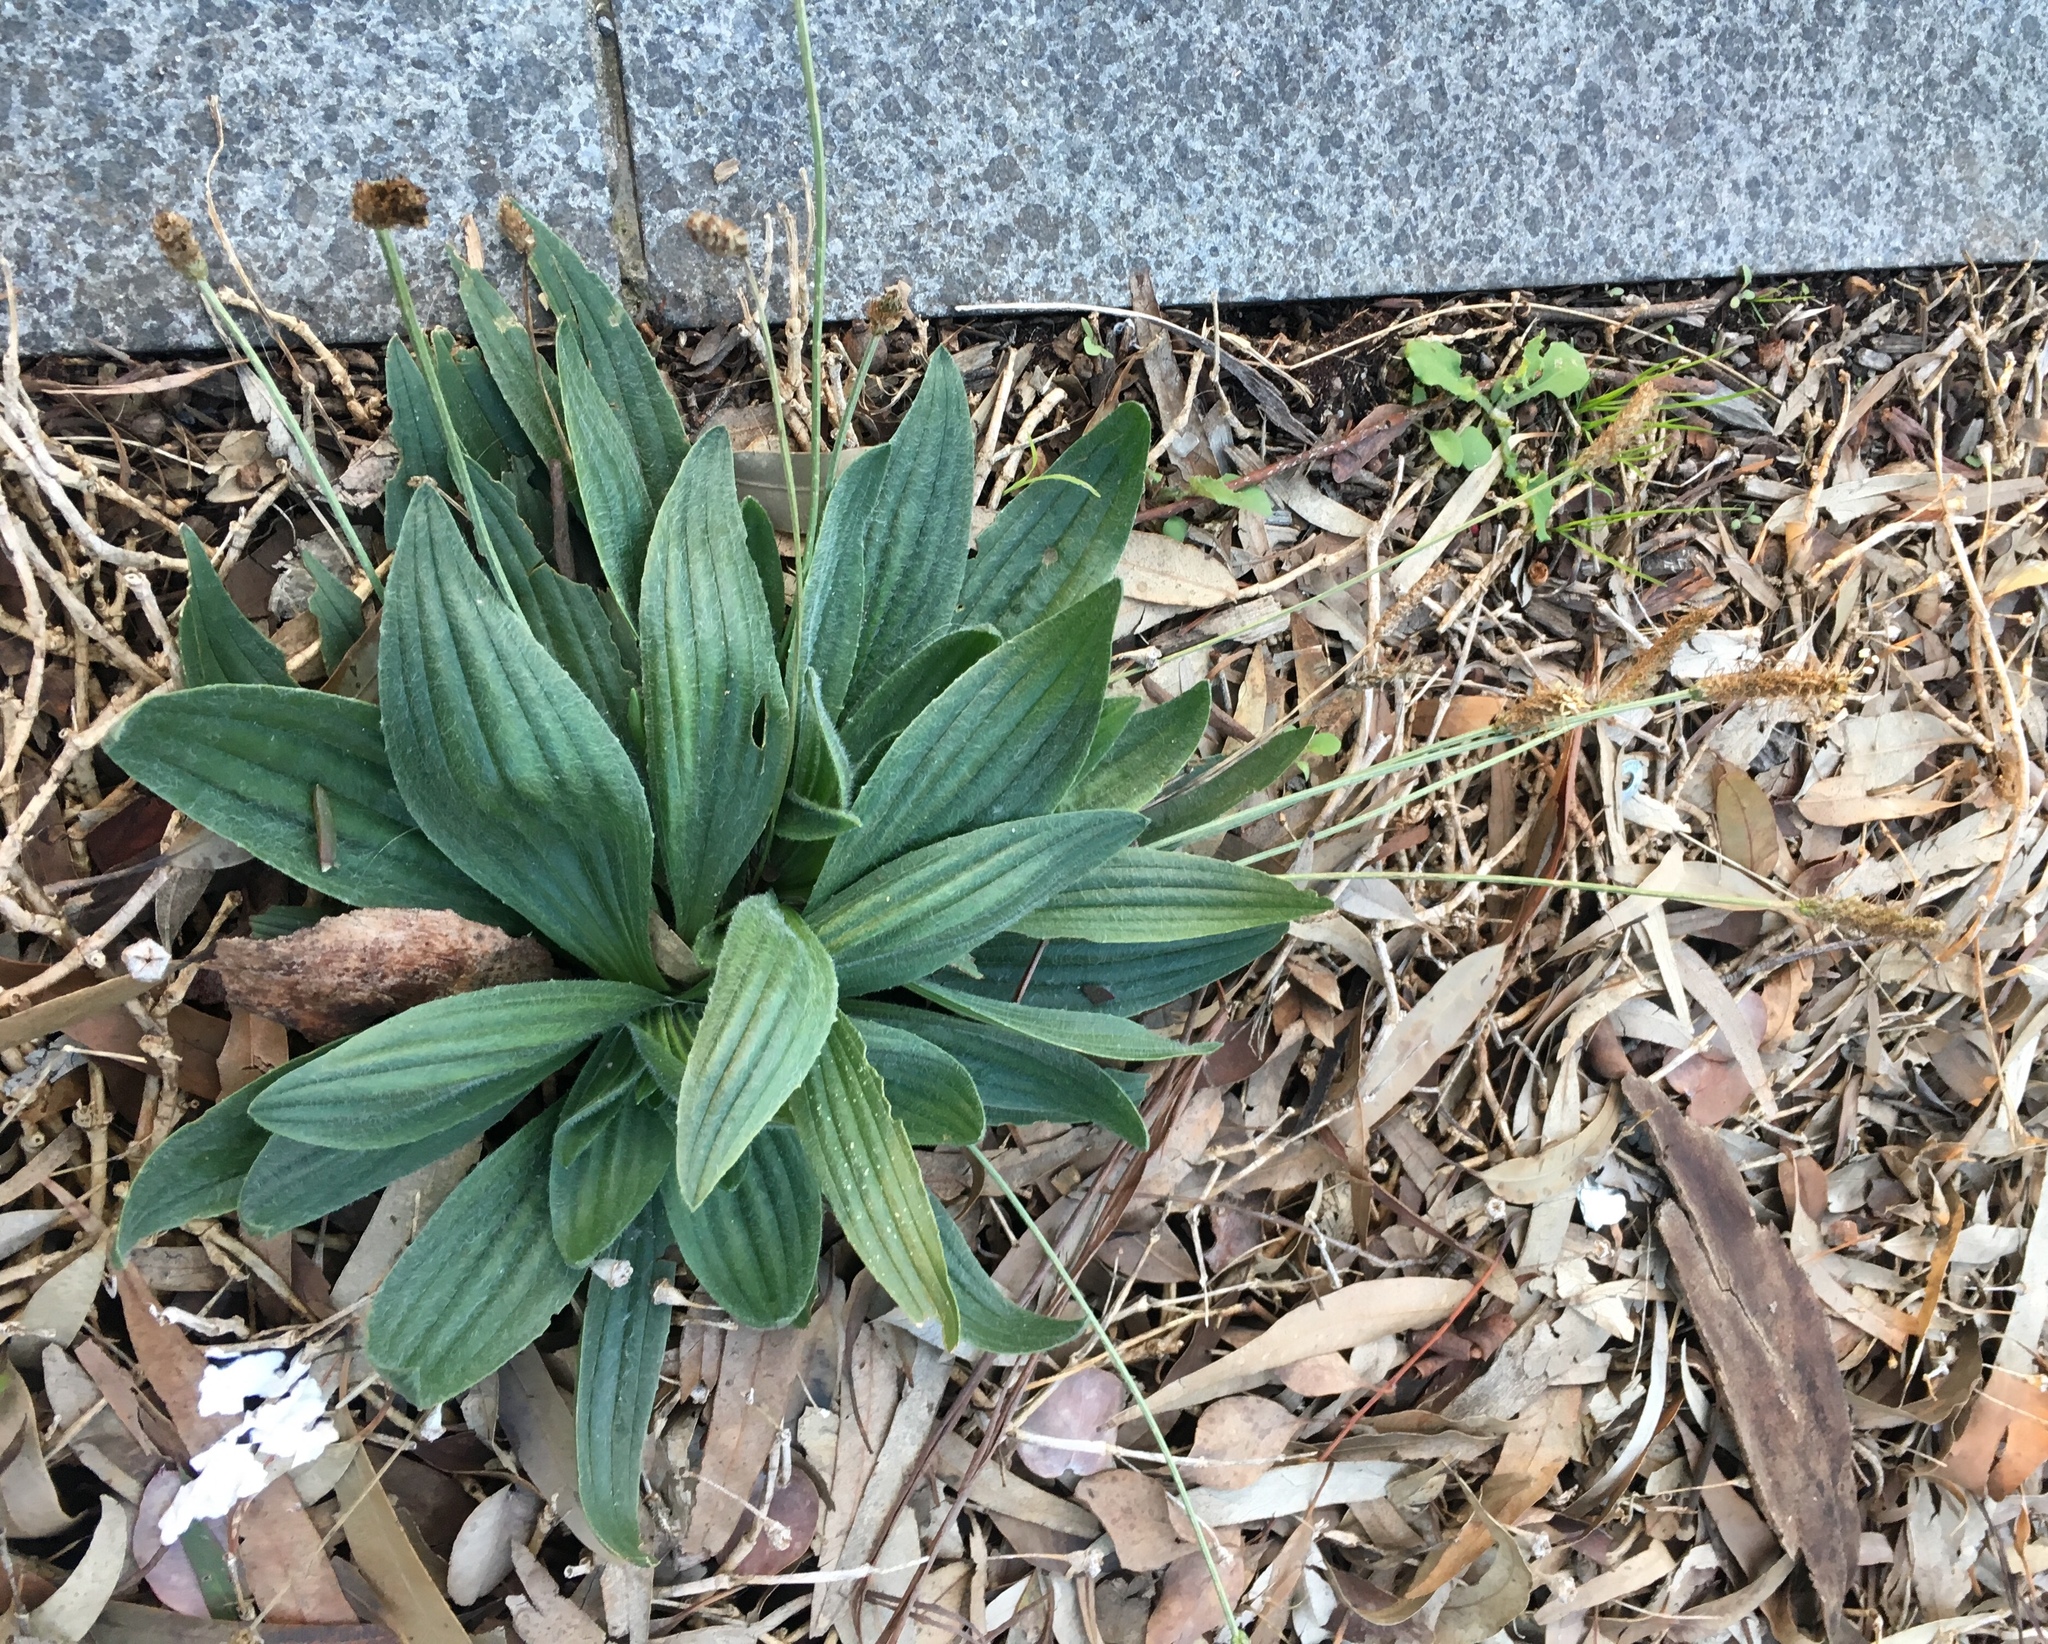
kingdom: Plantae
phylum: Tracheophyta
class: Magnoliopsida
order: Lamiales
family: Plantaginaceae
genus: Plantago
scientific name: Plantago lanceolata
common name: Ribwort plantain
